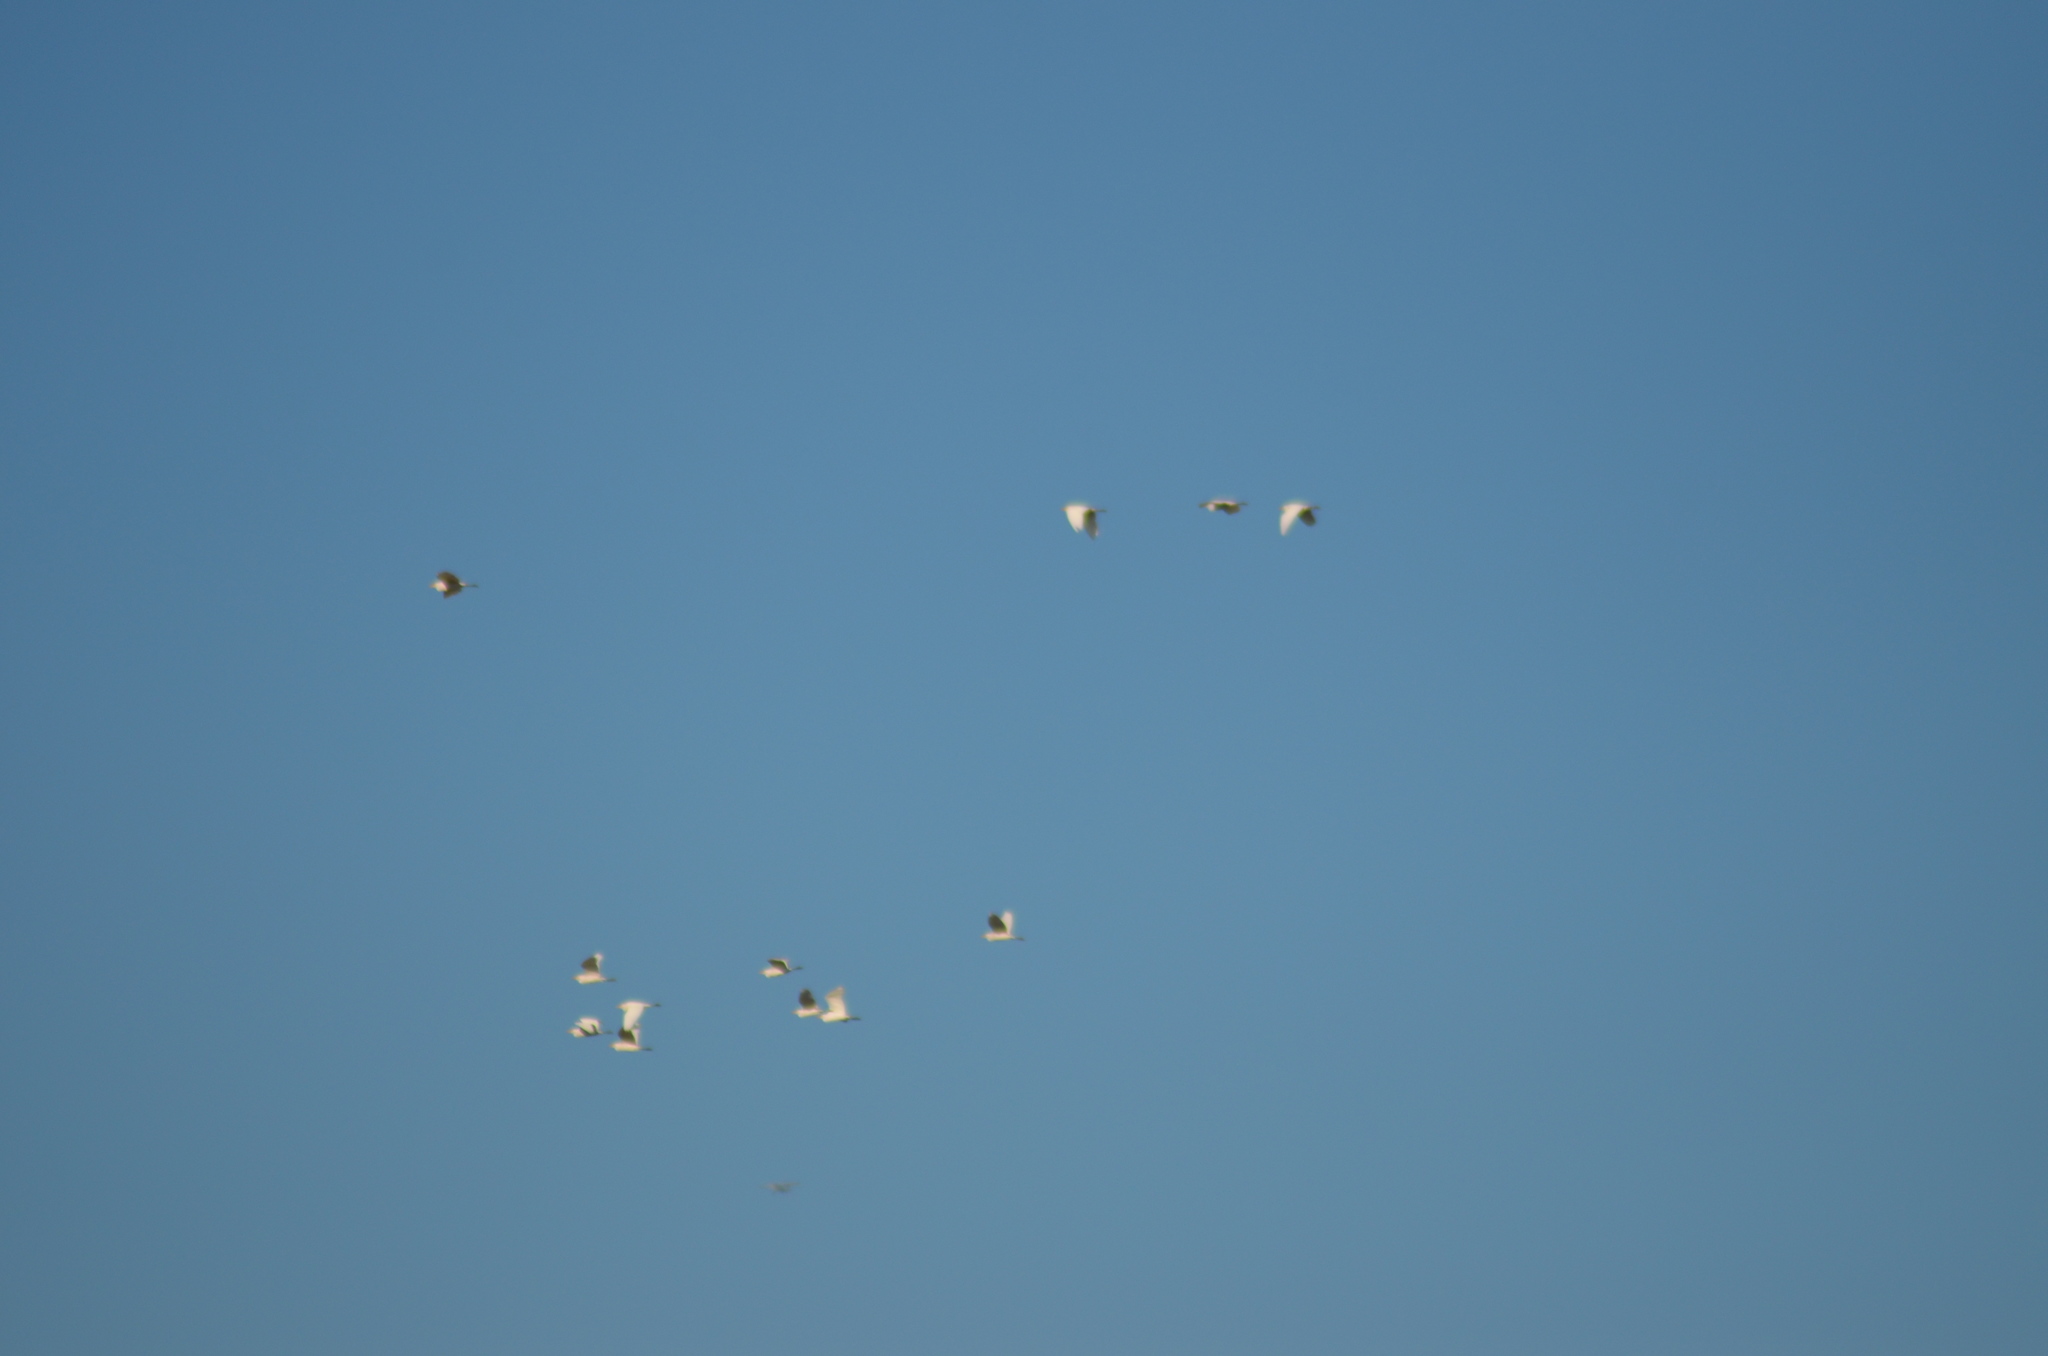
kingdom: Animalia
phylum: Chordata
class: Aves
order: Pelecaniformes
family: Ardeidae
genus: Bubulcus
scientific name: Bubulcus ibis
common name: Cattle egret
